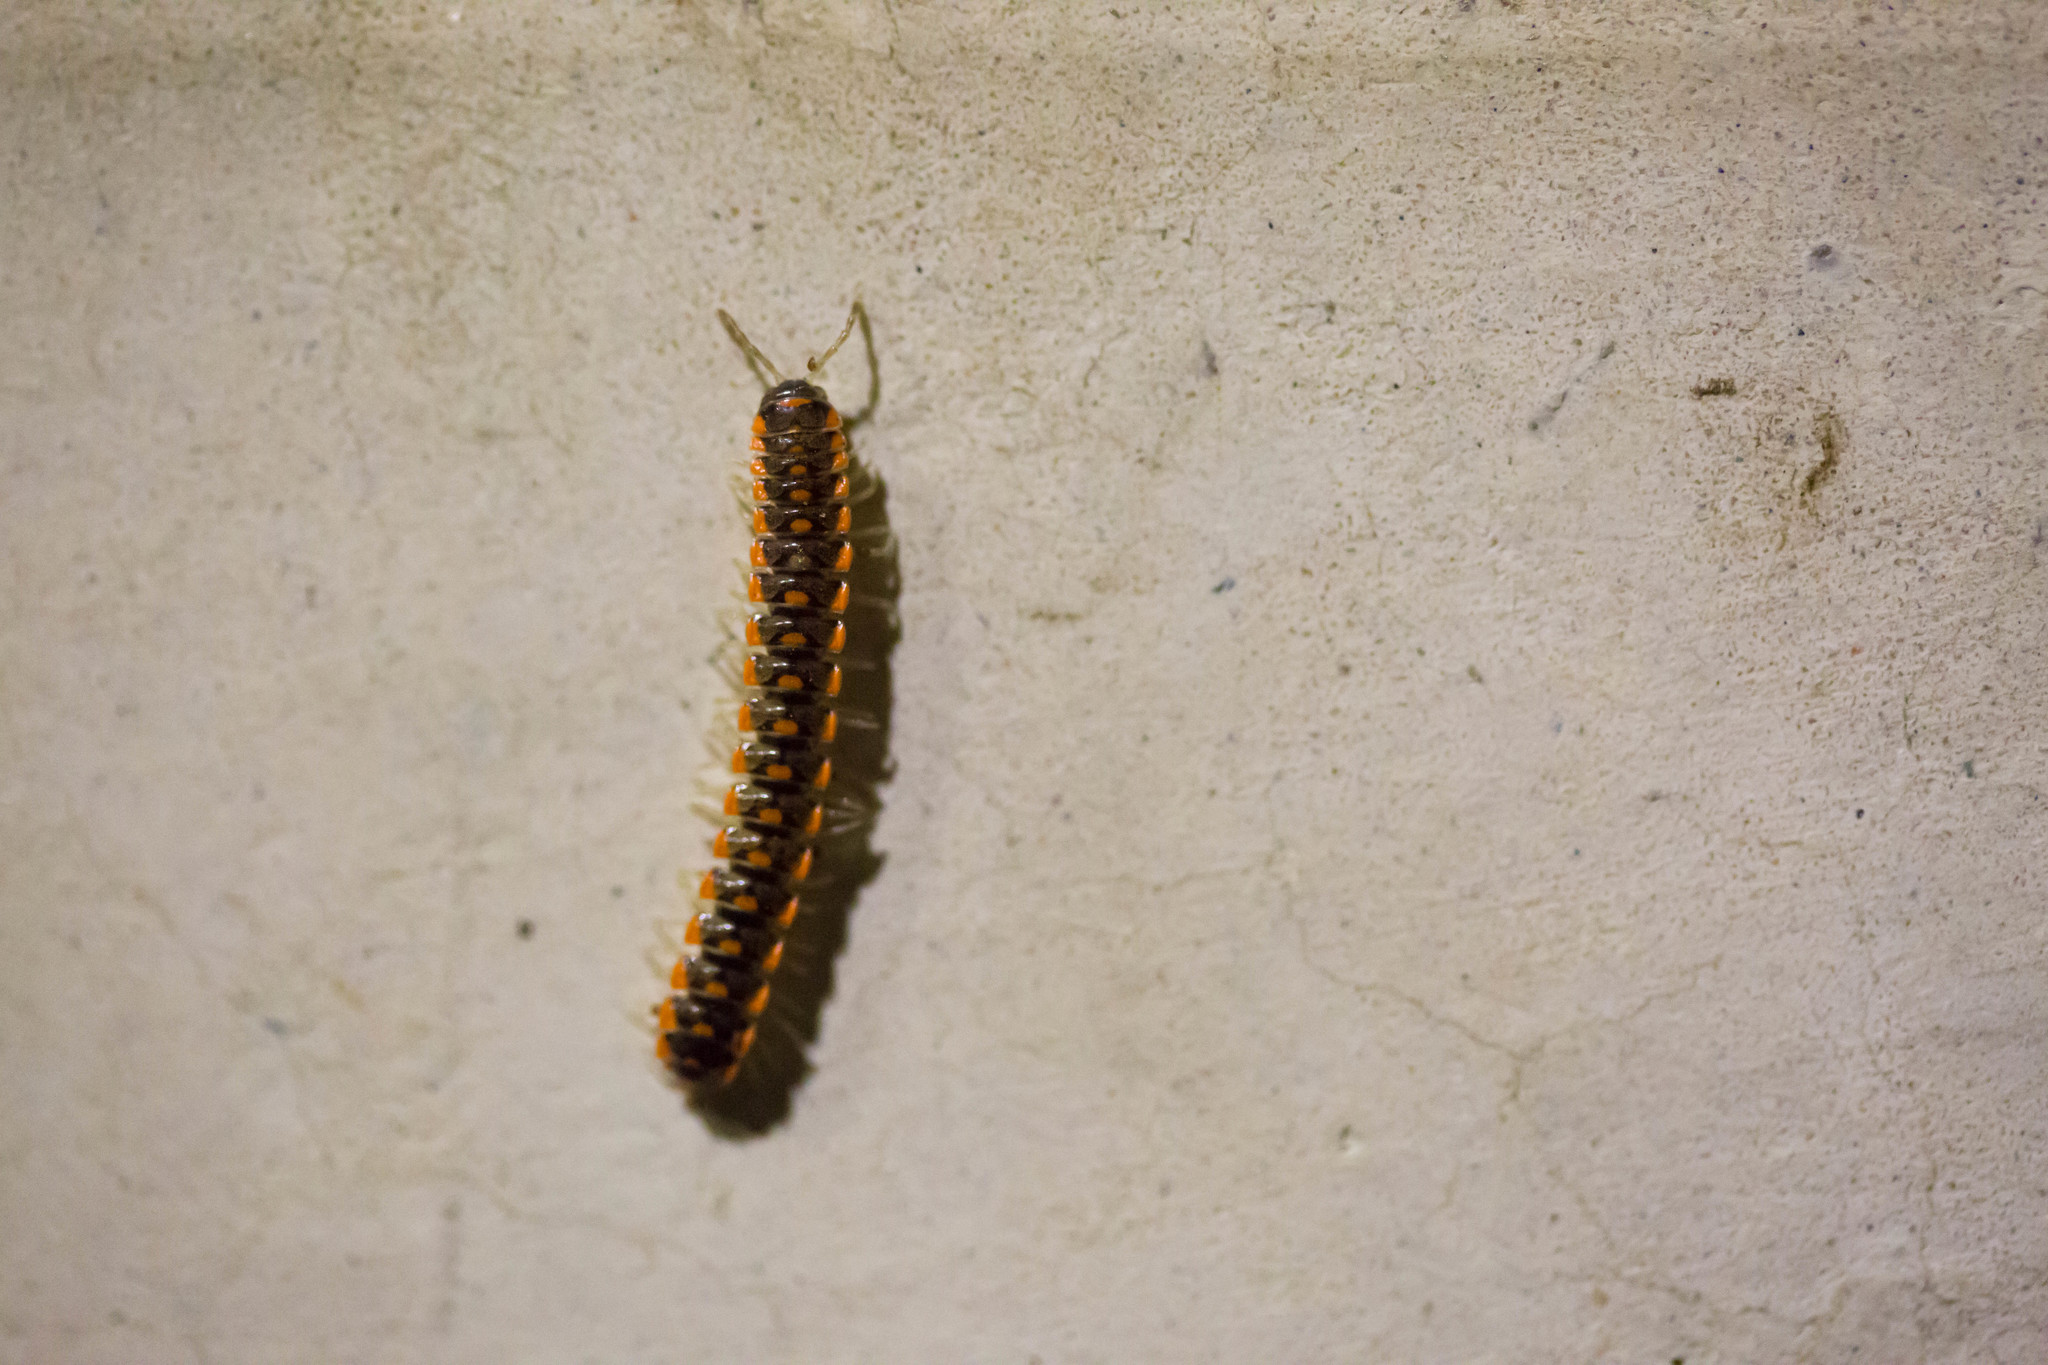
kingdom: Animalia
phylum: Arthropoda
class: Diplopoda
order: Polydesmida
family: Xystodesmidae
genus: Euryurus
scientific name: Euryurus mcclurkini
